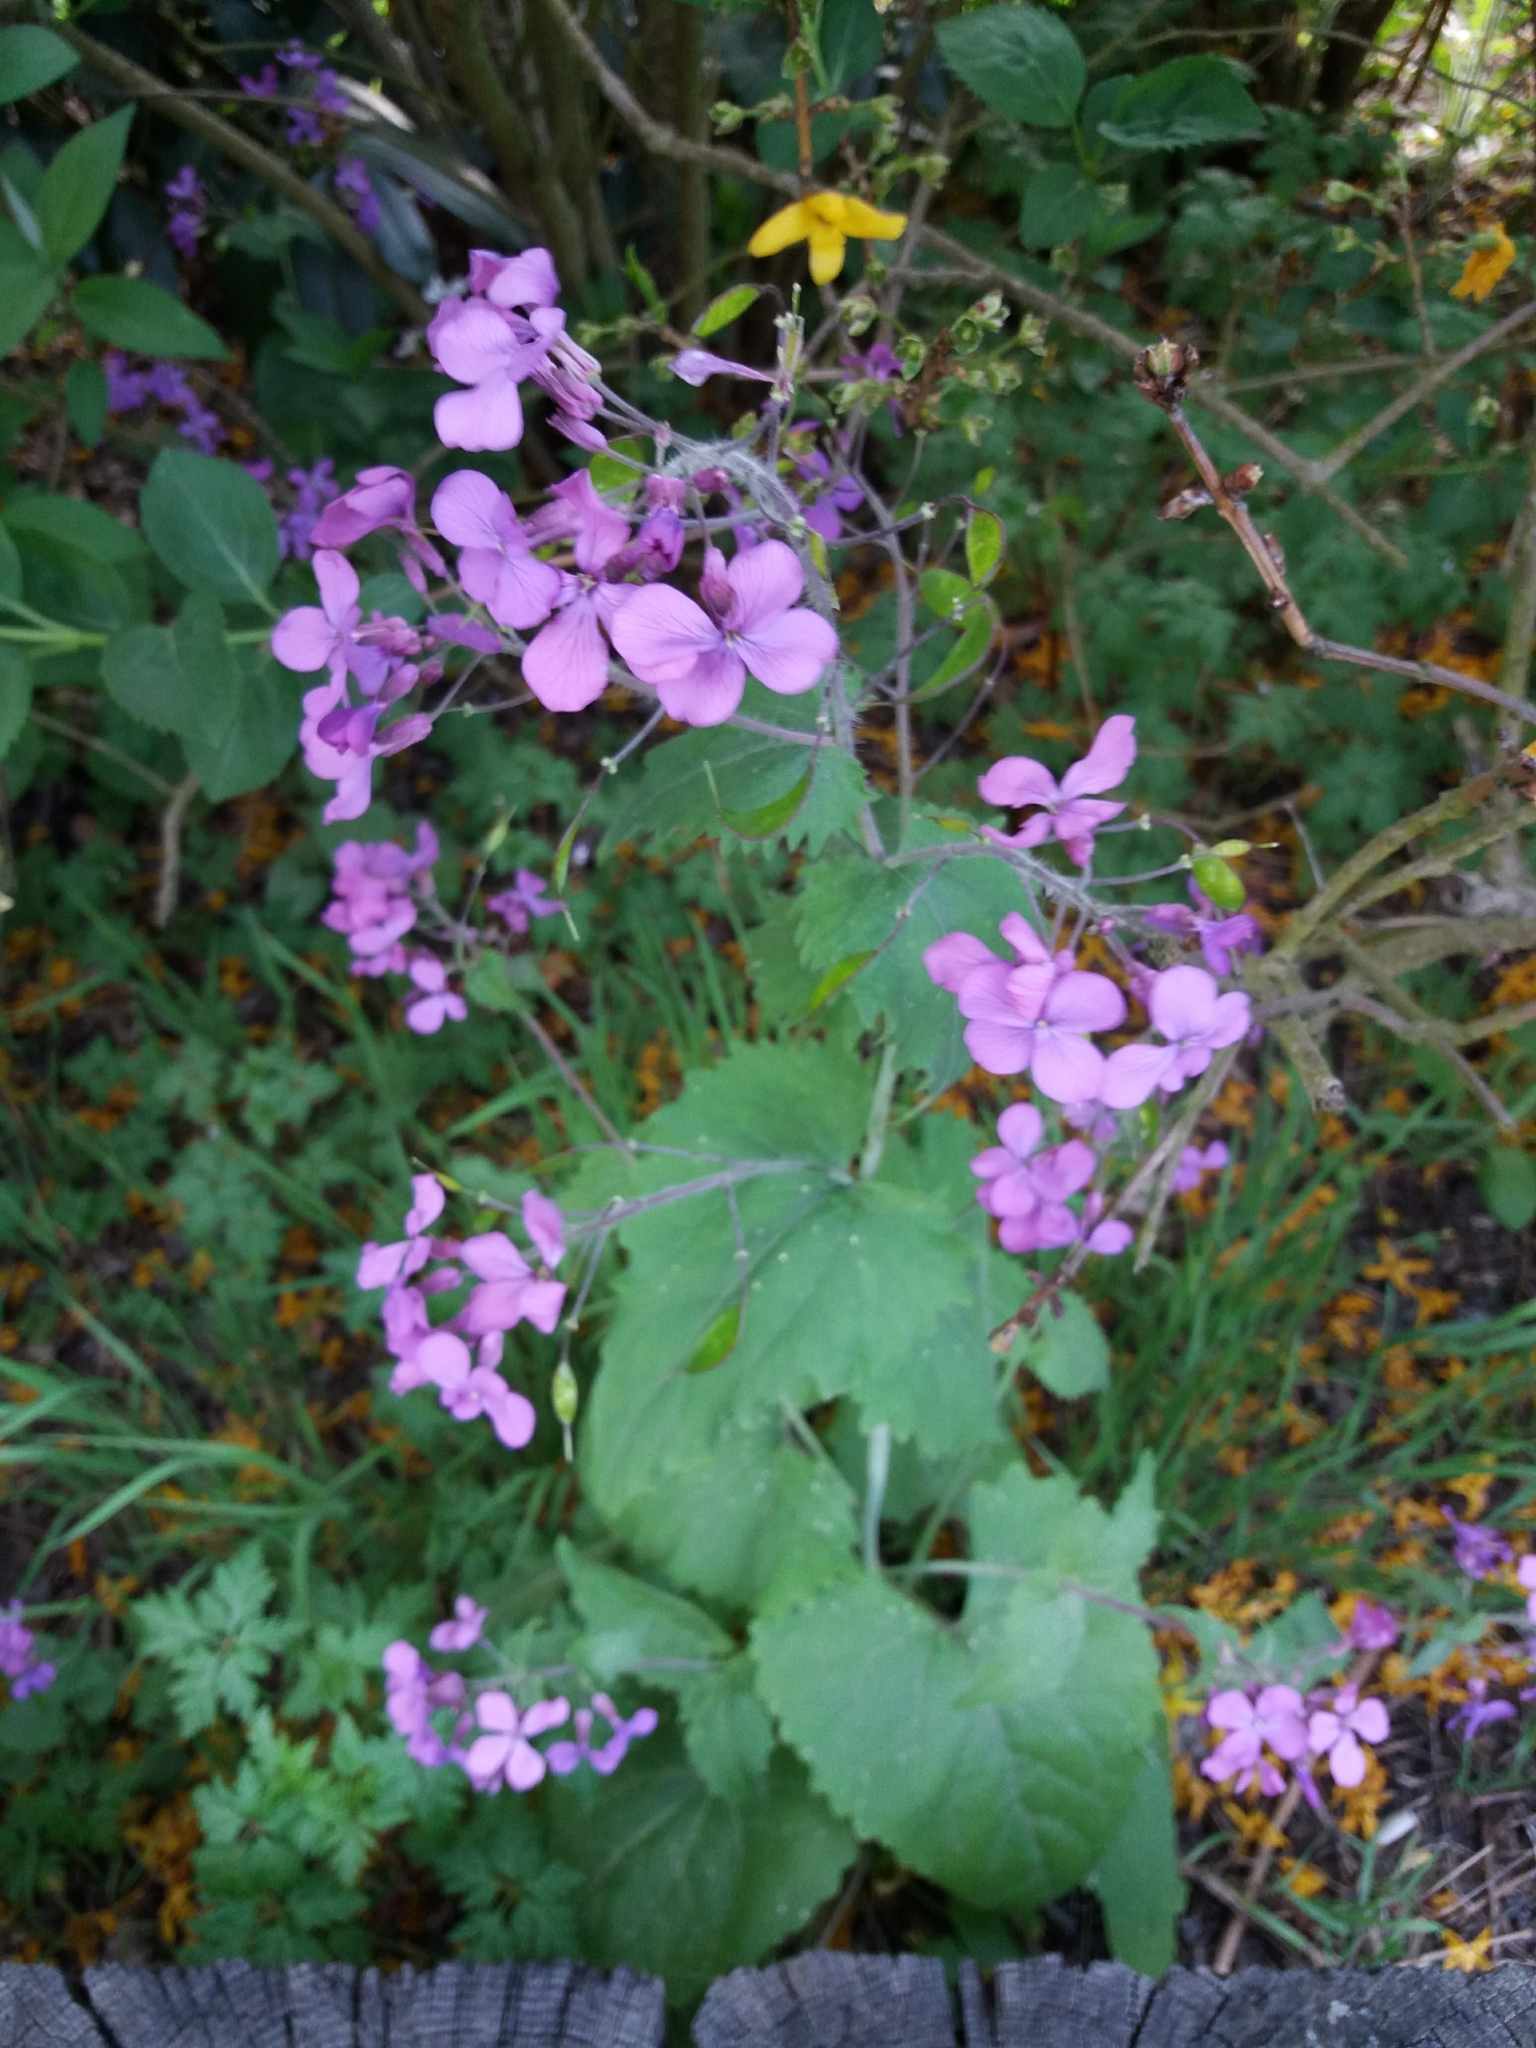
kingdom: Plantae
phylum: Tracheophyta
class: Magnoliopsida
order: Brassicales
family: Brassicaceae
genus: Lunaria
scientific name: Lunaria annua
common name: Honesty
